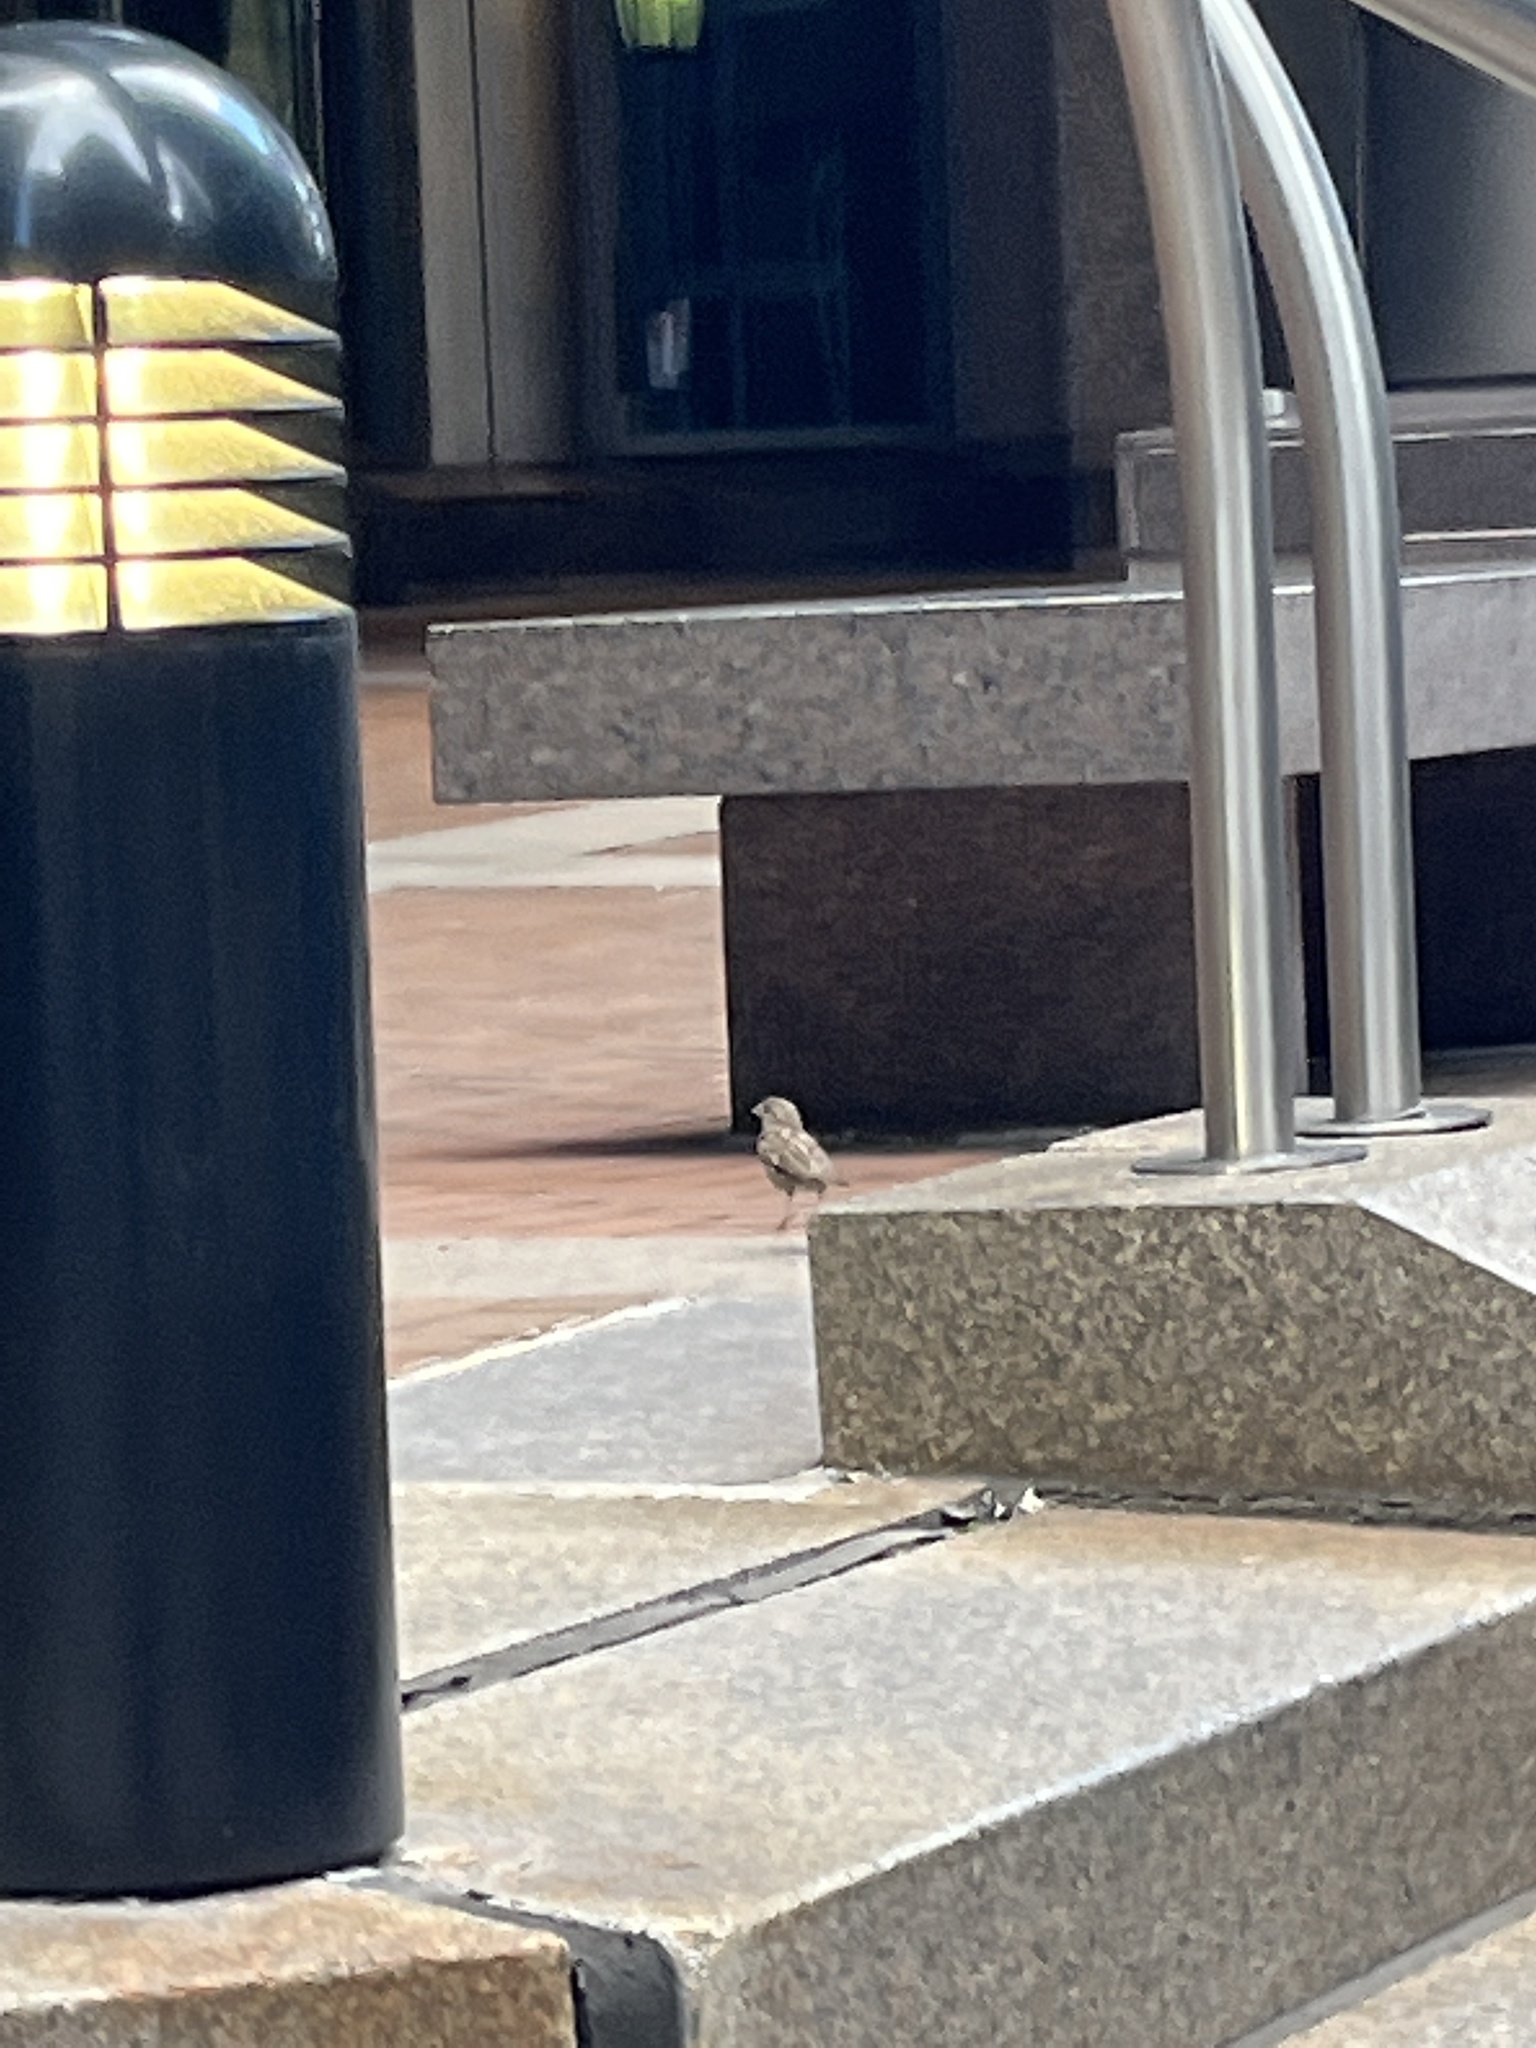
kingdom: Animalia
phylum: Chordata
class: Aves
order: Passeriformes
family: Passeridae
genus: Passer
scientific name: Passer domesticus
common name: House sparrow
